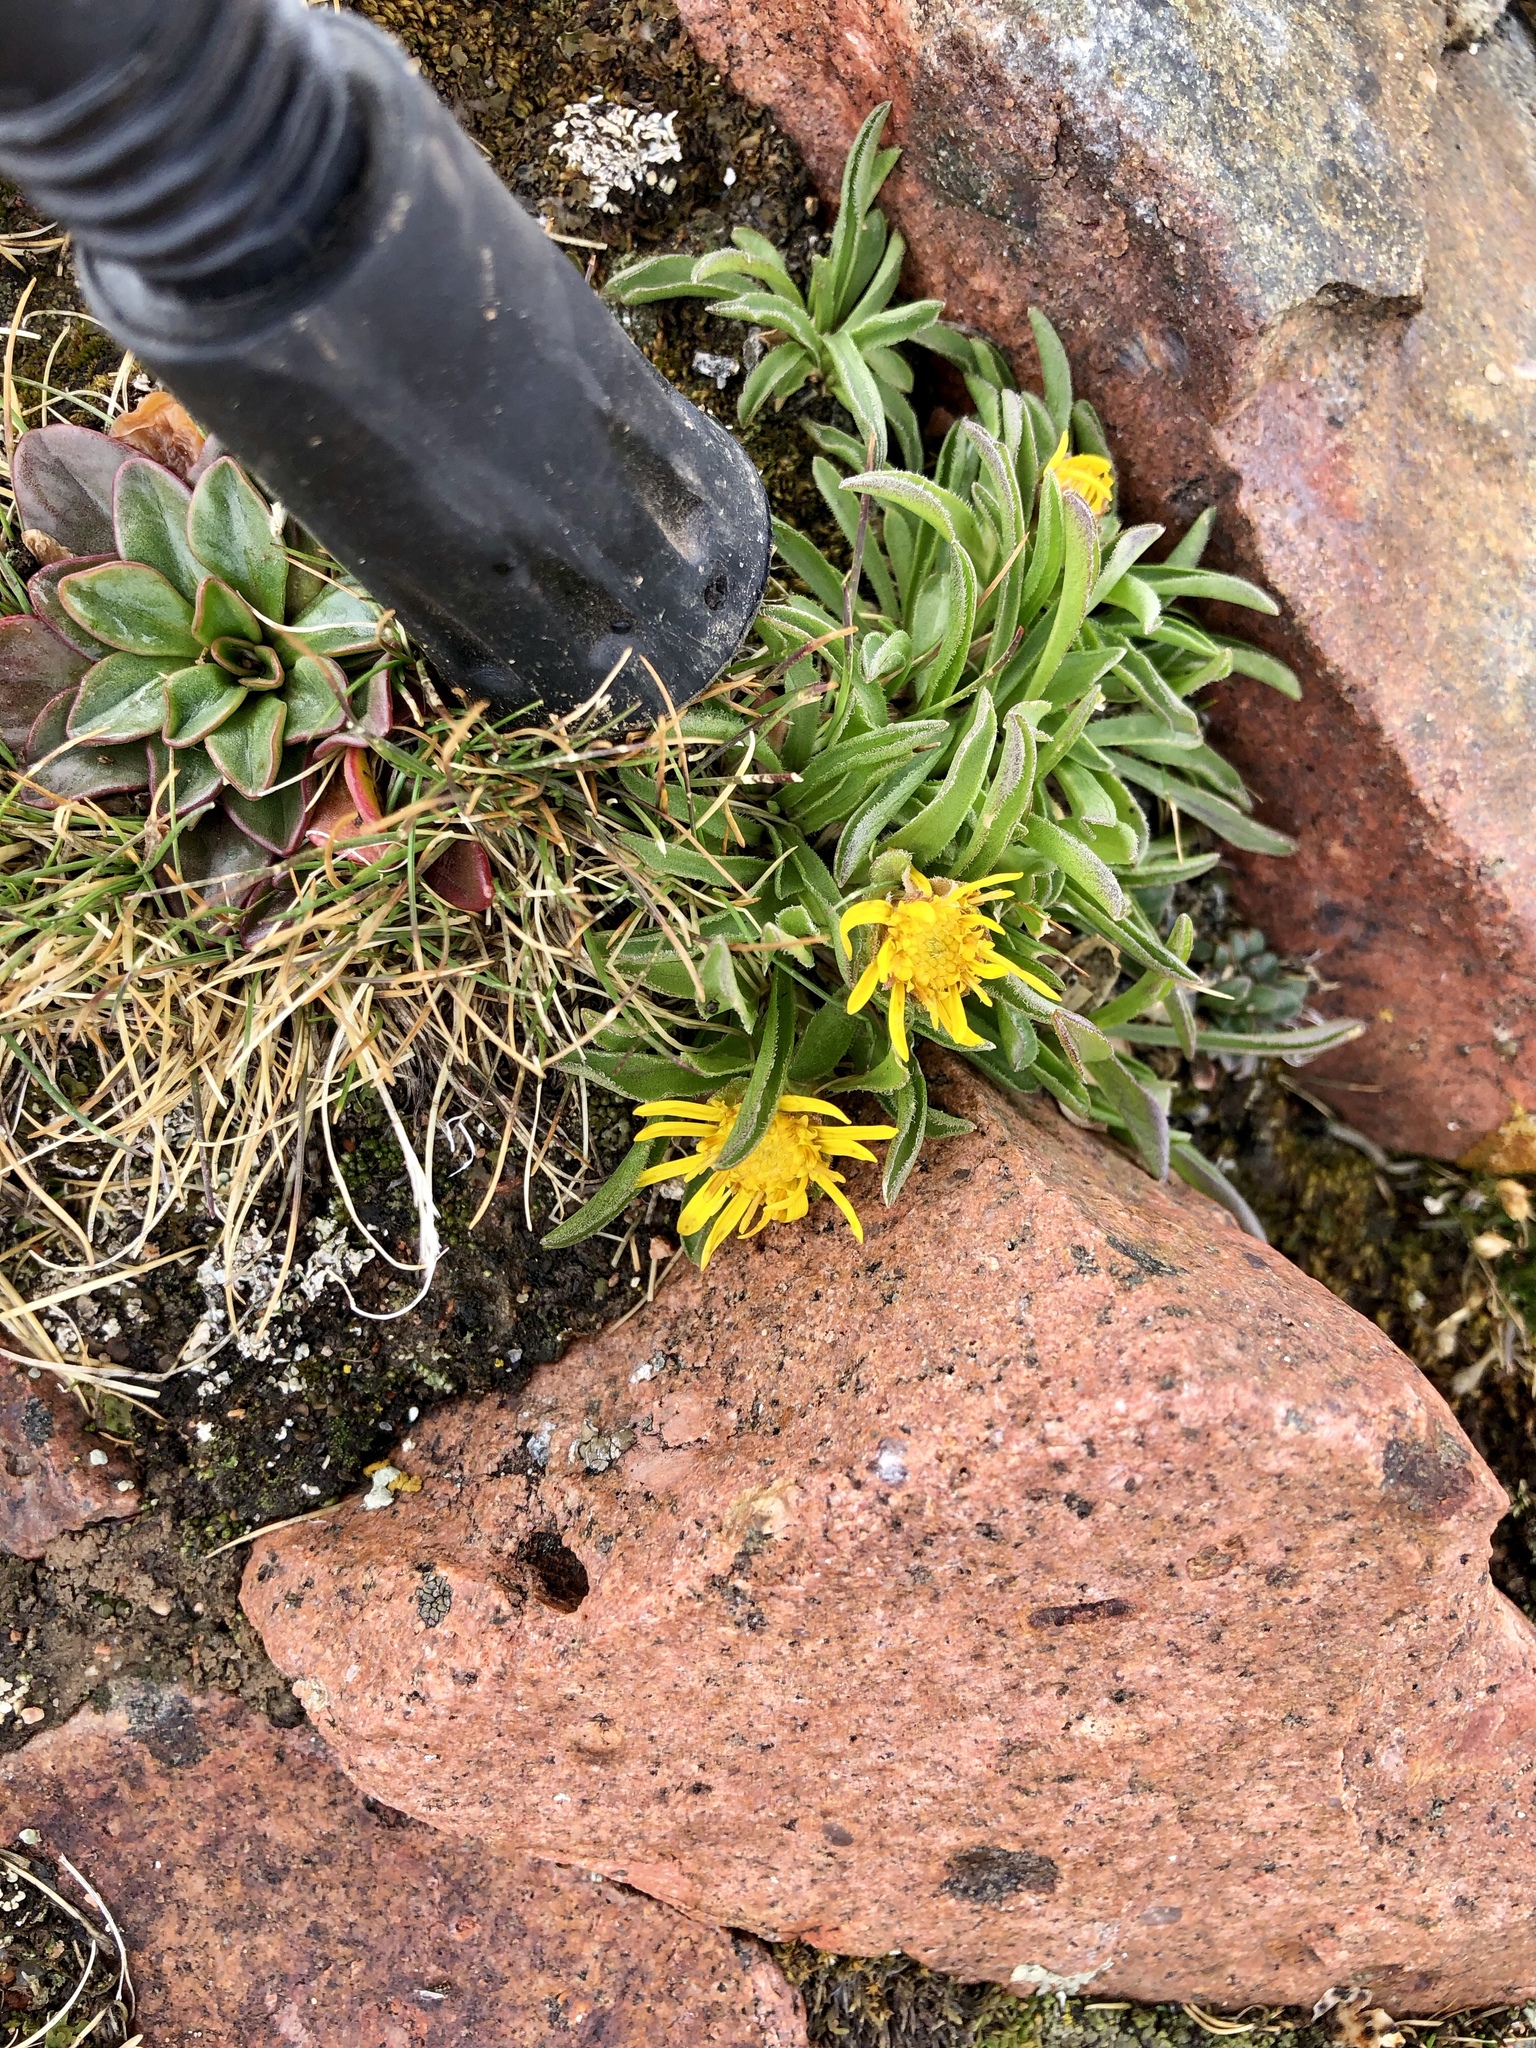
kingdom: Plantae
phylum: Tracheophyta
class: Magnoliopsida
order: Asterales
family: Asteraceae
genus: Tonestus
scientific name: Tonestus pygmaeus
